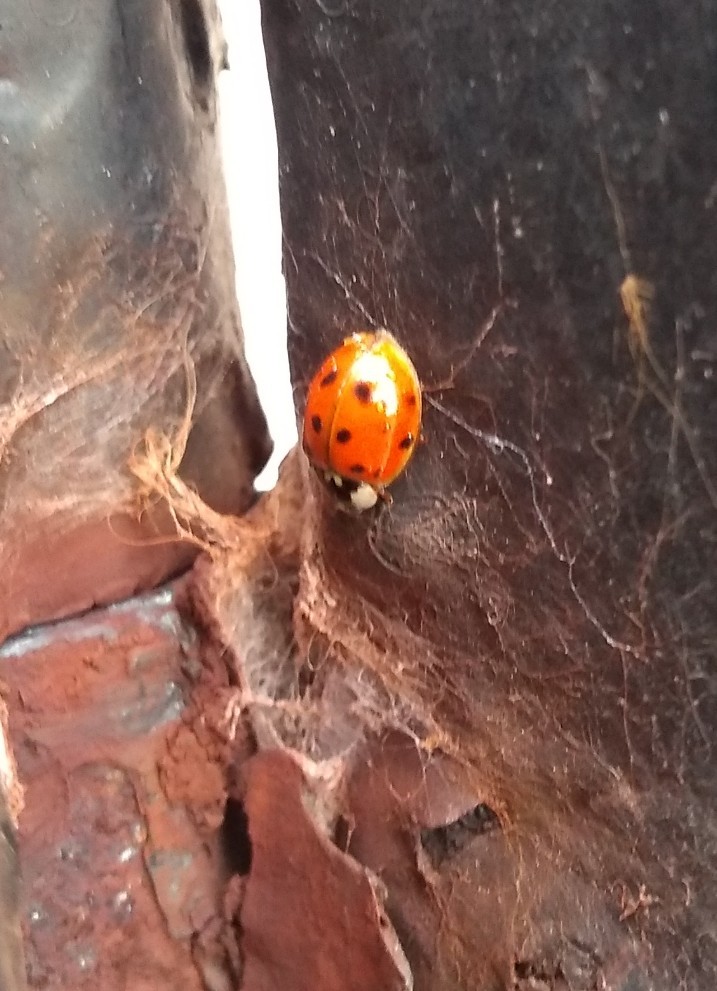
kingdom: Animalia
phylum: Arthropoda
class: Insecta
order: Coleoptera
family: Coccinellidae
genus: Harmonia
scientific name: Harmonia axyridis
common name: Harlequin ladybird
